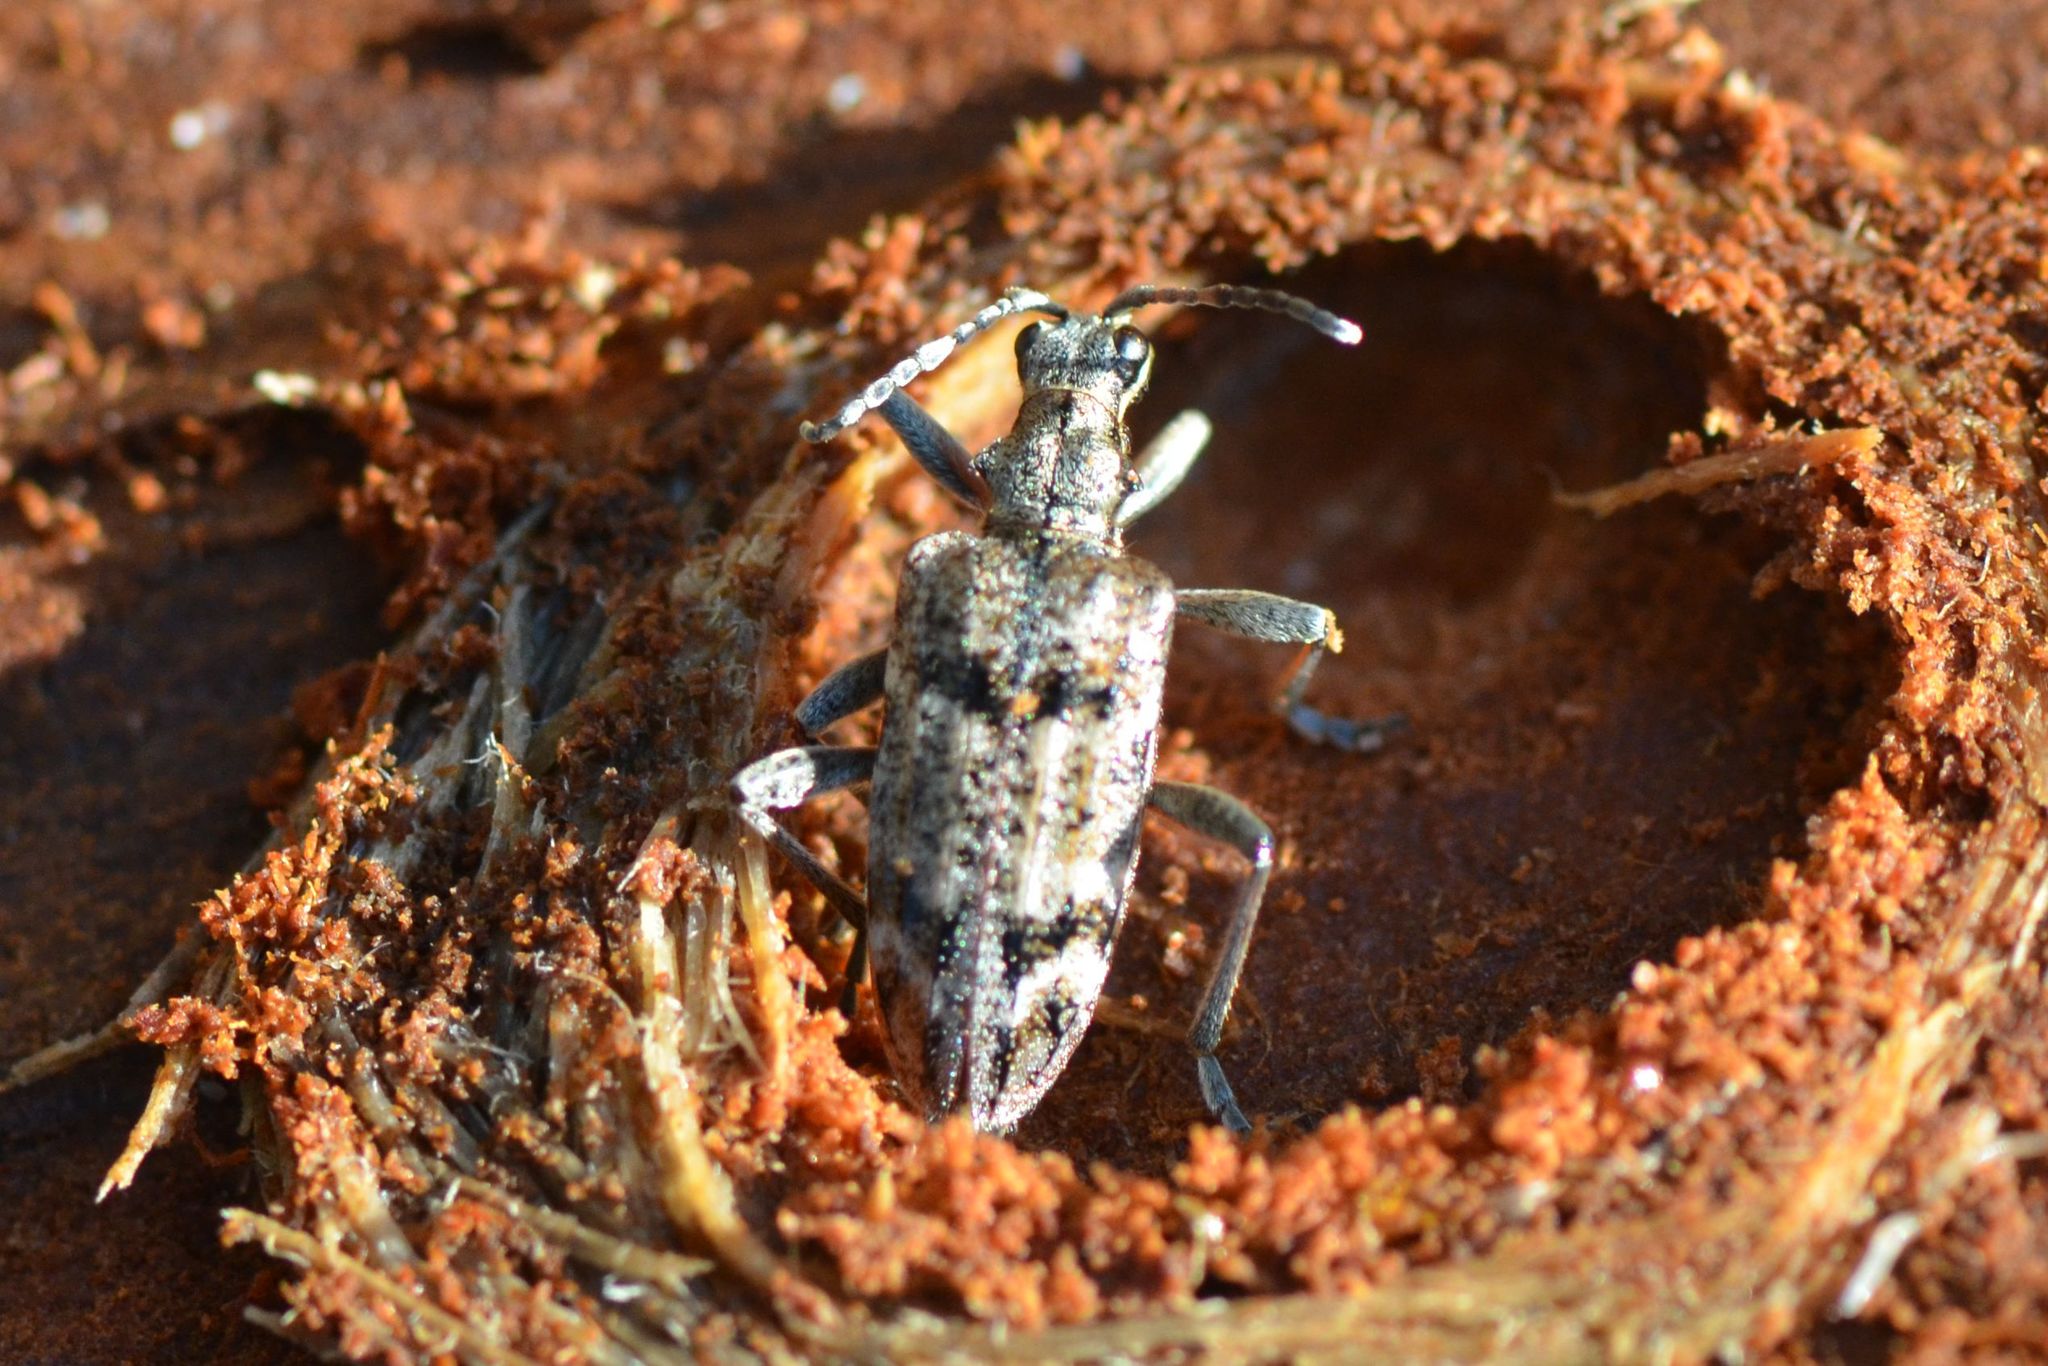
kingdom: Animalia
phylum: Arthropoda
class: Insecta
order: Coleoptera
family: Cerambycidae
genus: Rhagium
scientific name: Rhagium inquisitor
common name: Ribbed pine borer
